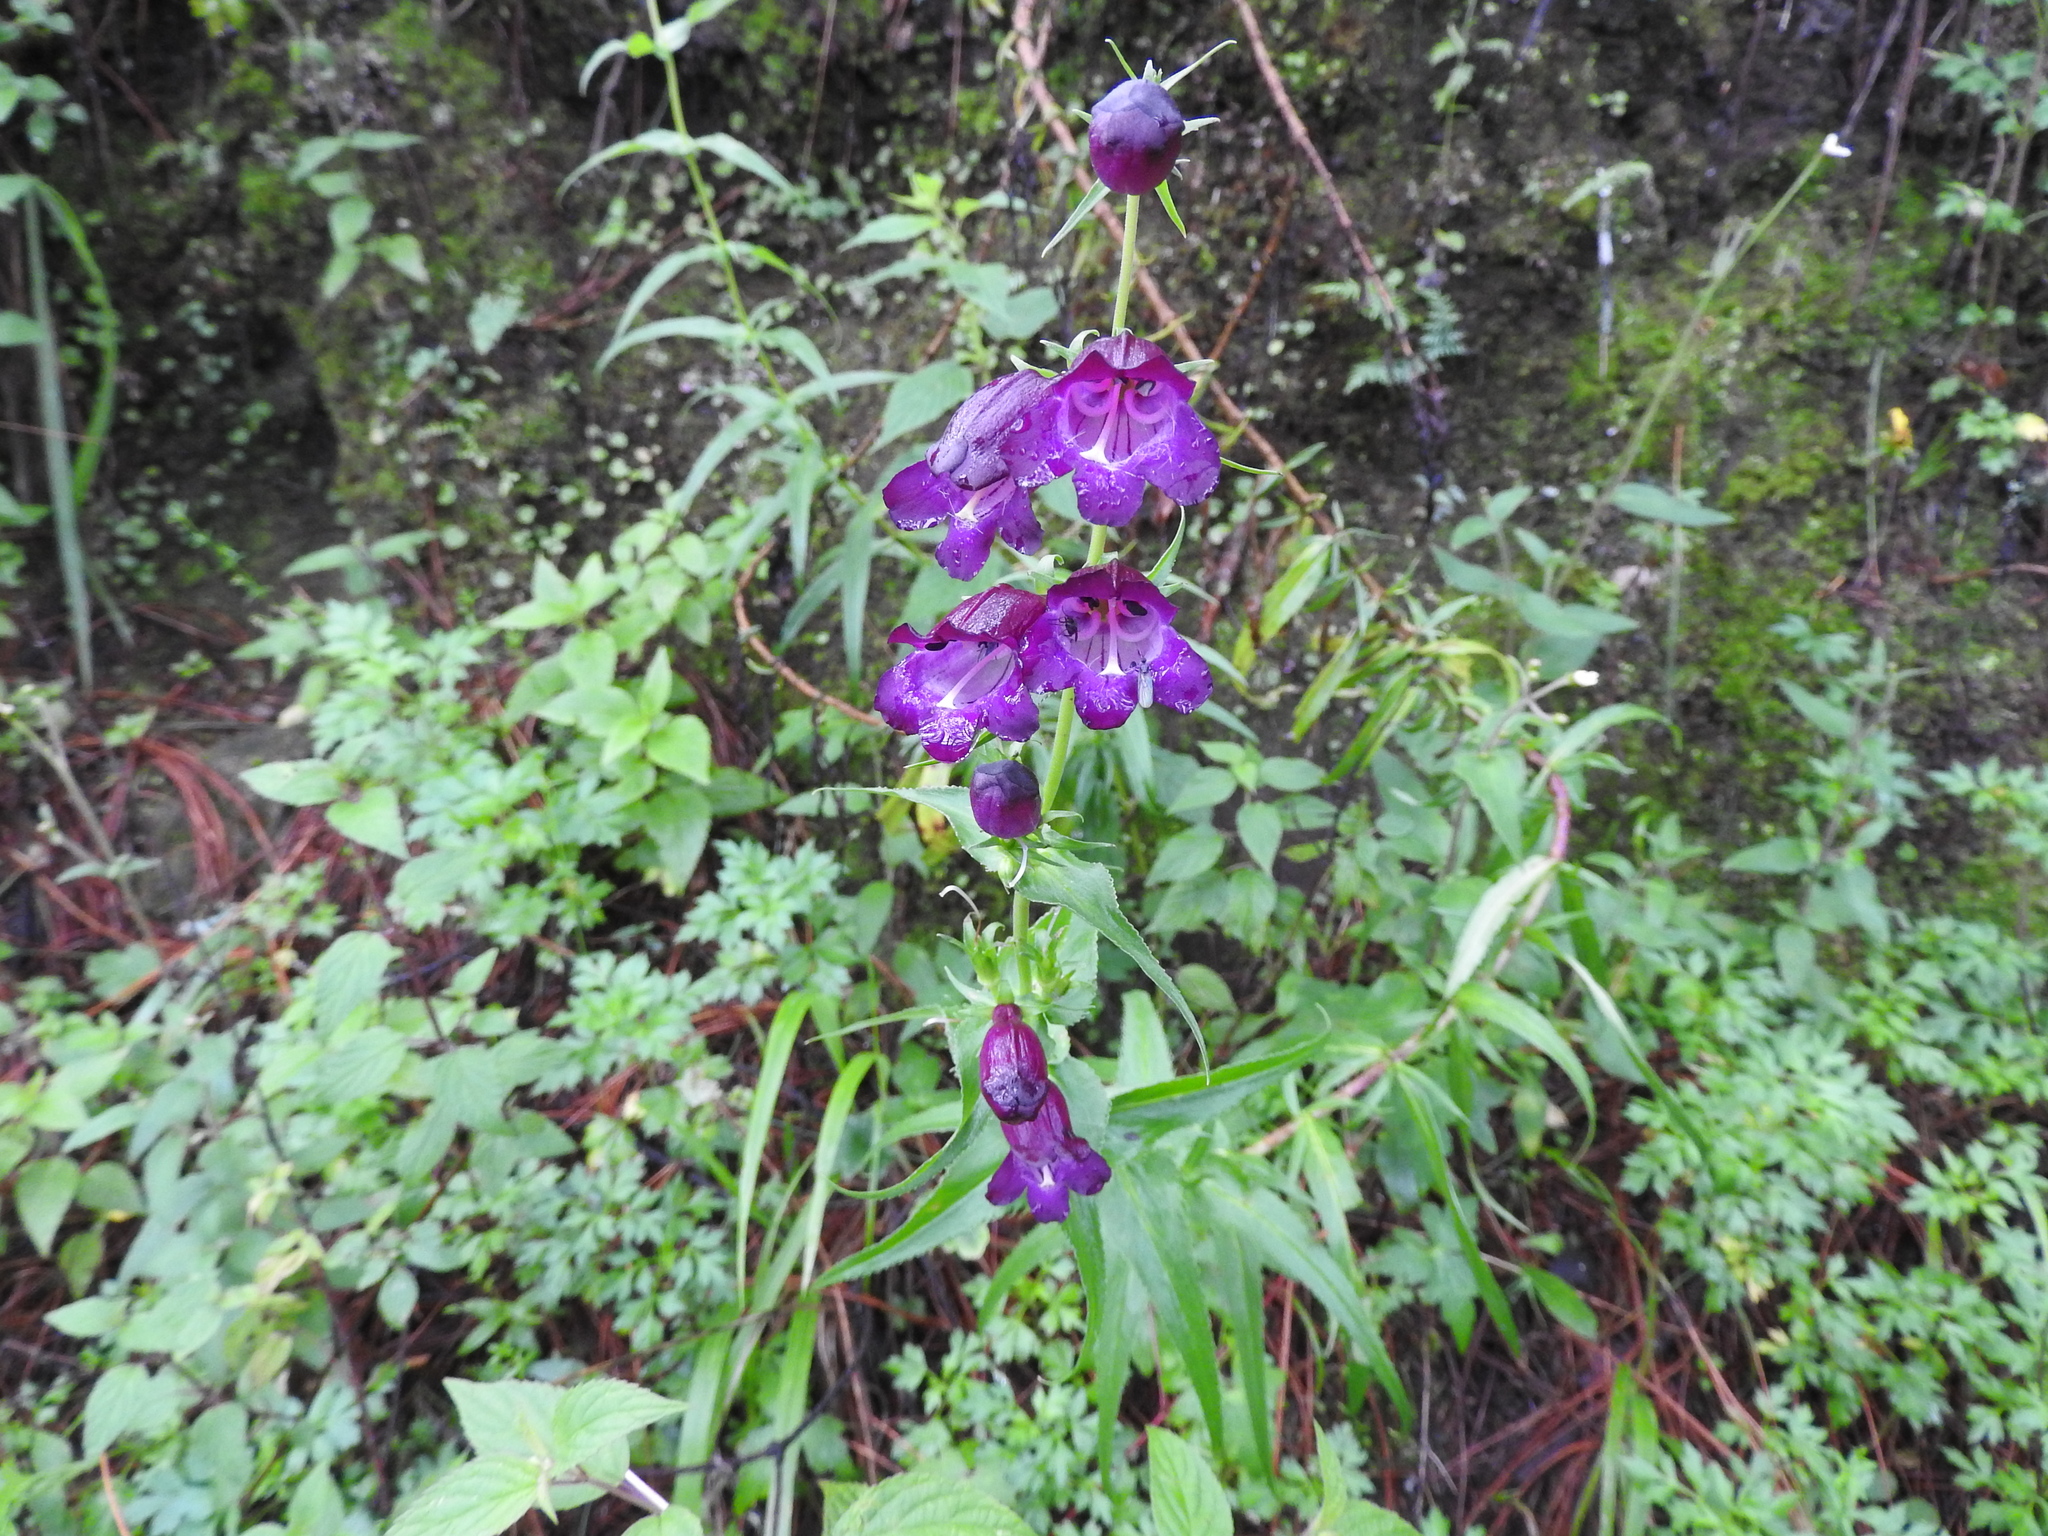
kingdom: Plantae
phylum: Tracheophyta
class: Magnoliopsida
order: Lamiales
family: Plantaginaceae
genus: Penstemon
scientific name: Penstemon campanulatus
